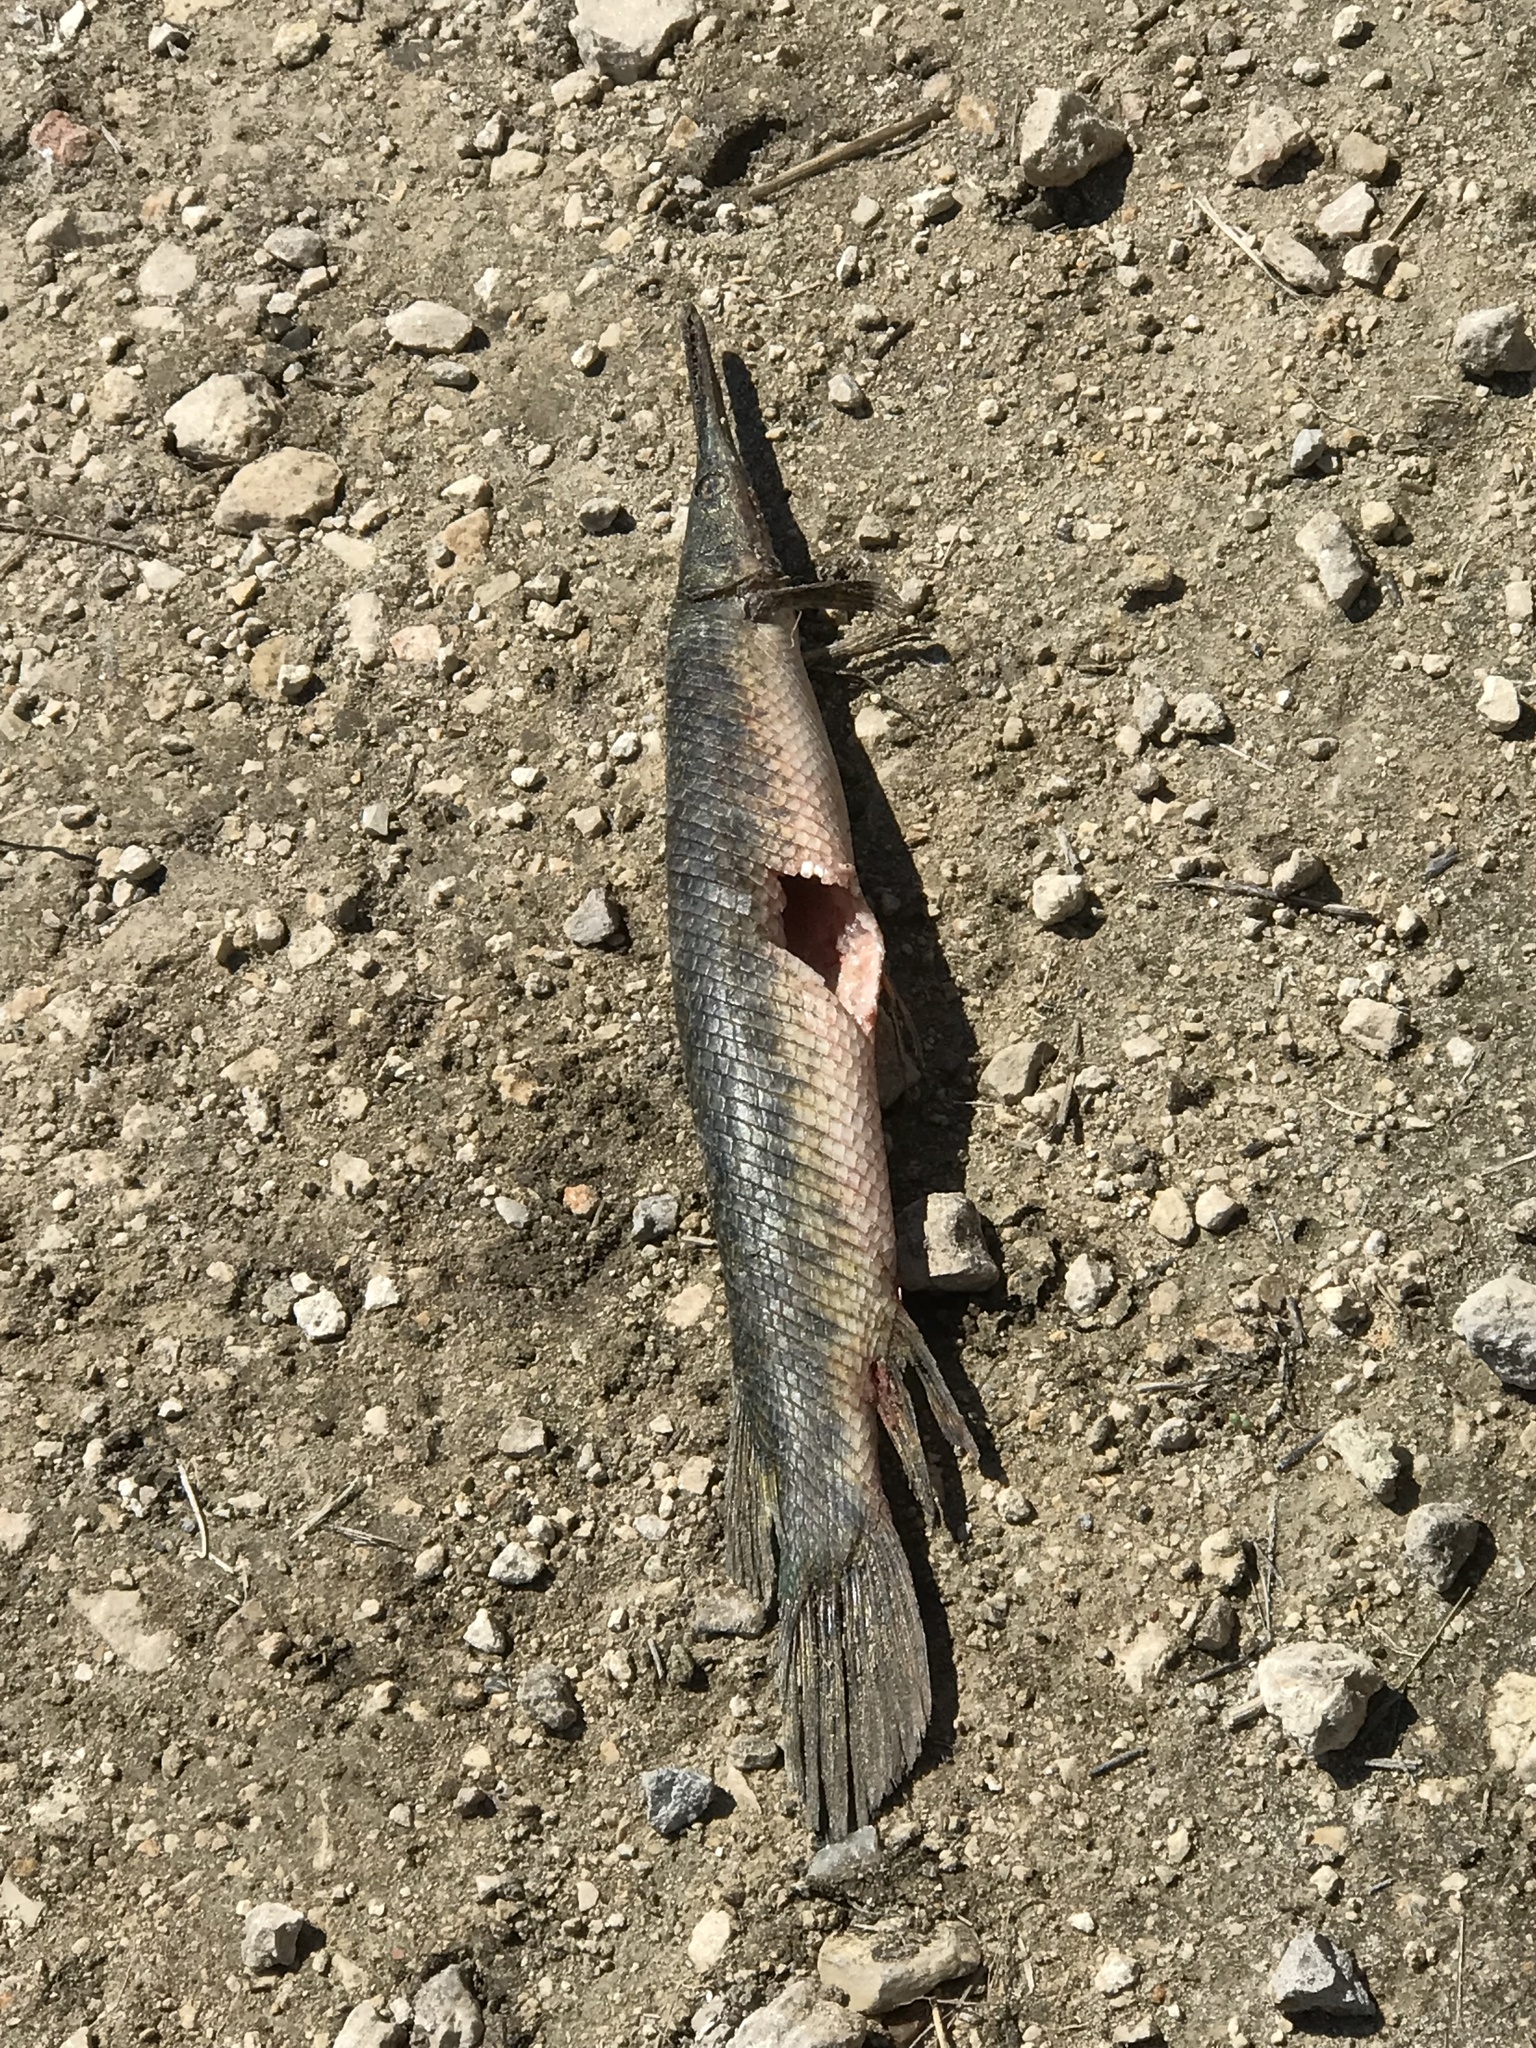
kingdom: Animalia
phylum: Chordata
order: Lepisosteiformes
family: Lepisosteidae
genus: Lepisosteus
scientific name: Lepisosteus oculatus
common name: Spotted gar
